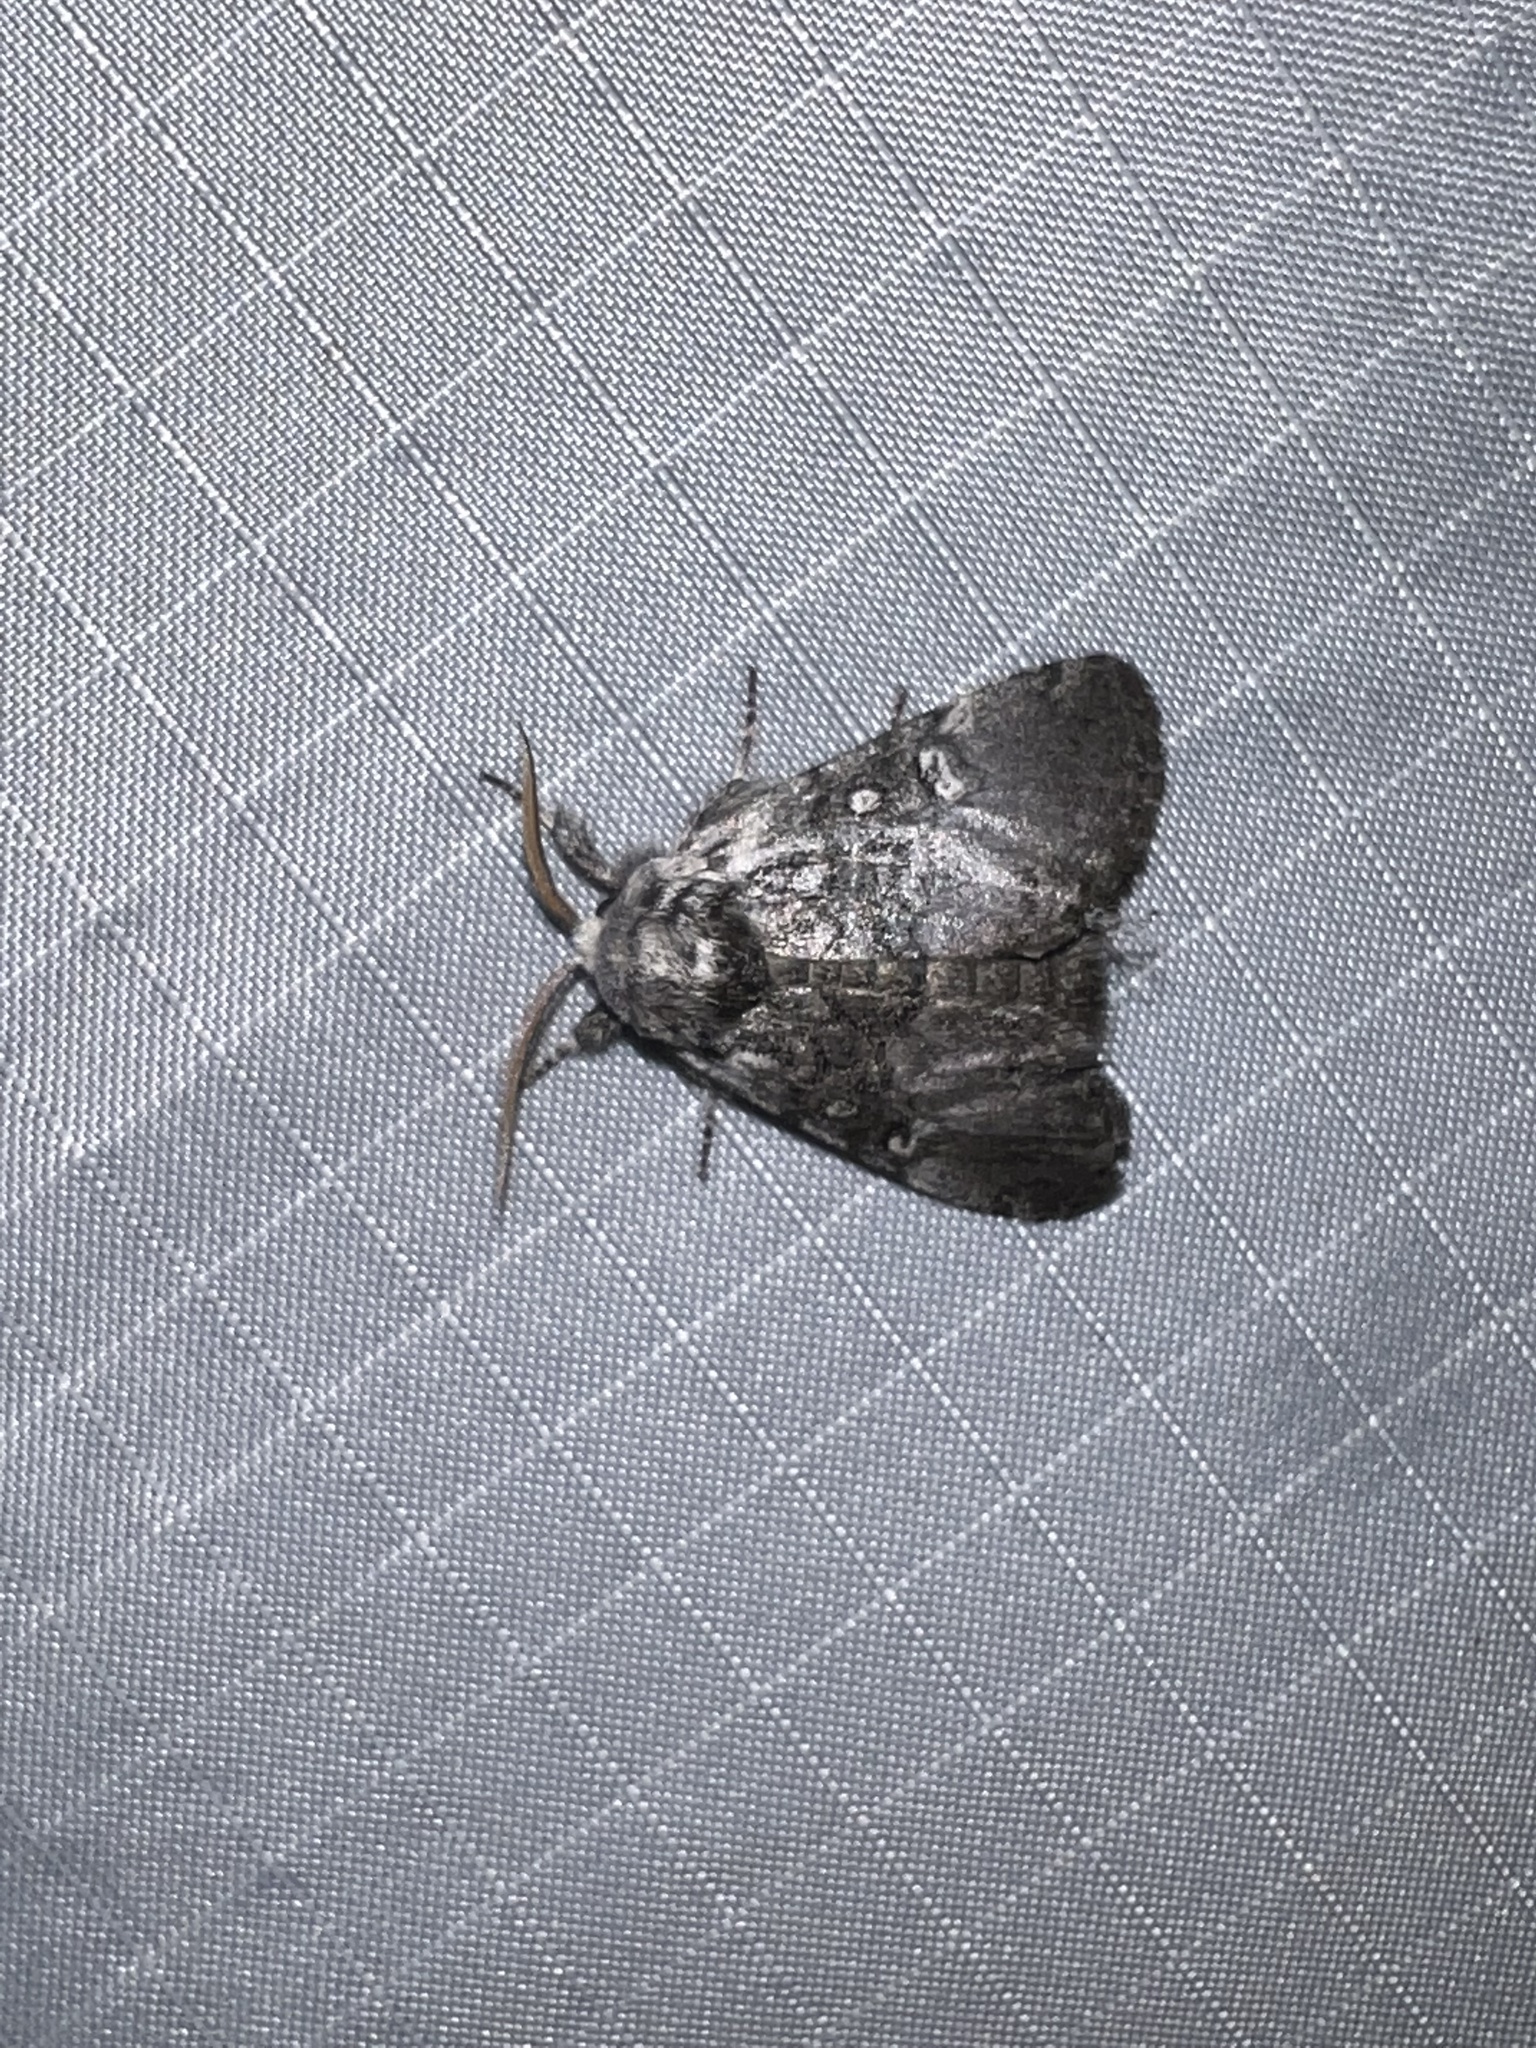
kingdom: Animalia
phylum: Arthropoda
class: Insecta
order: Lepidoptera
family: Noctuidae
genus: Colocasia
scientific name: Colocasia propinquilinea
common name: Close-banded demas
